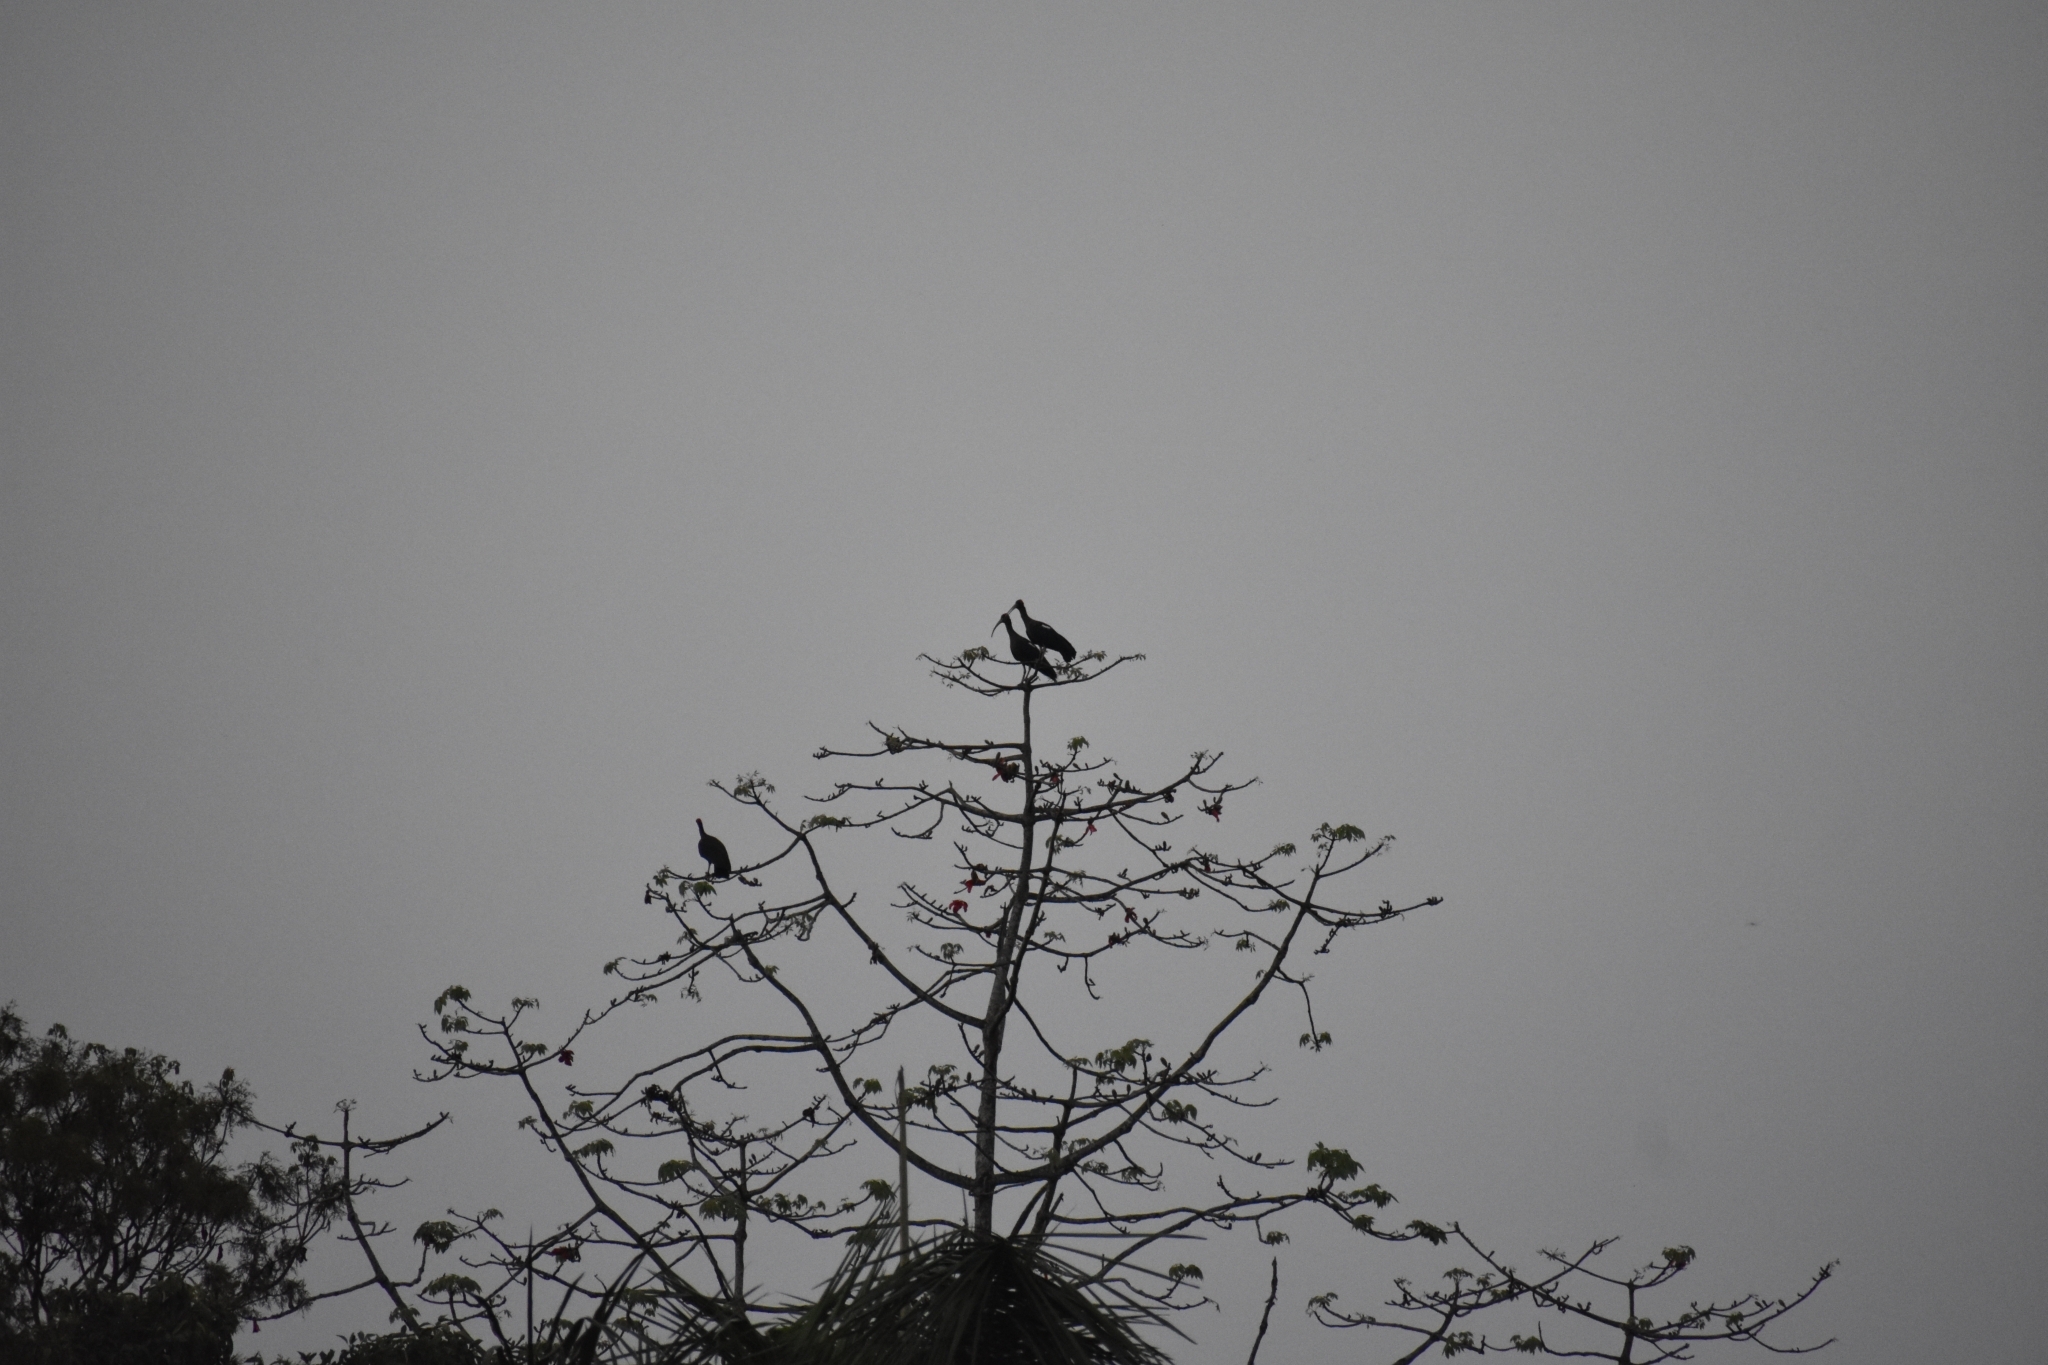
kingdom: Animalia
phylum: Chordata
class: Aves
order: Pelecaniformes
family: Threskiornithidae
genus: Pseudibis
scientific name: Pseudibis papillosa
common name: Red-naped ibis
